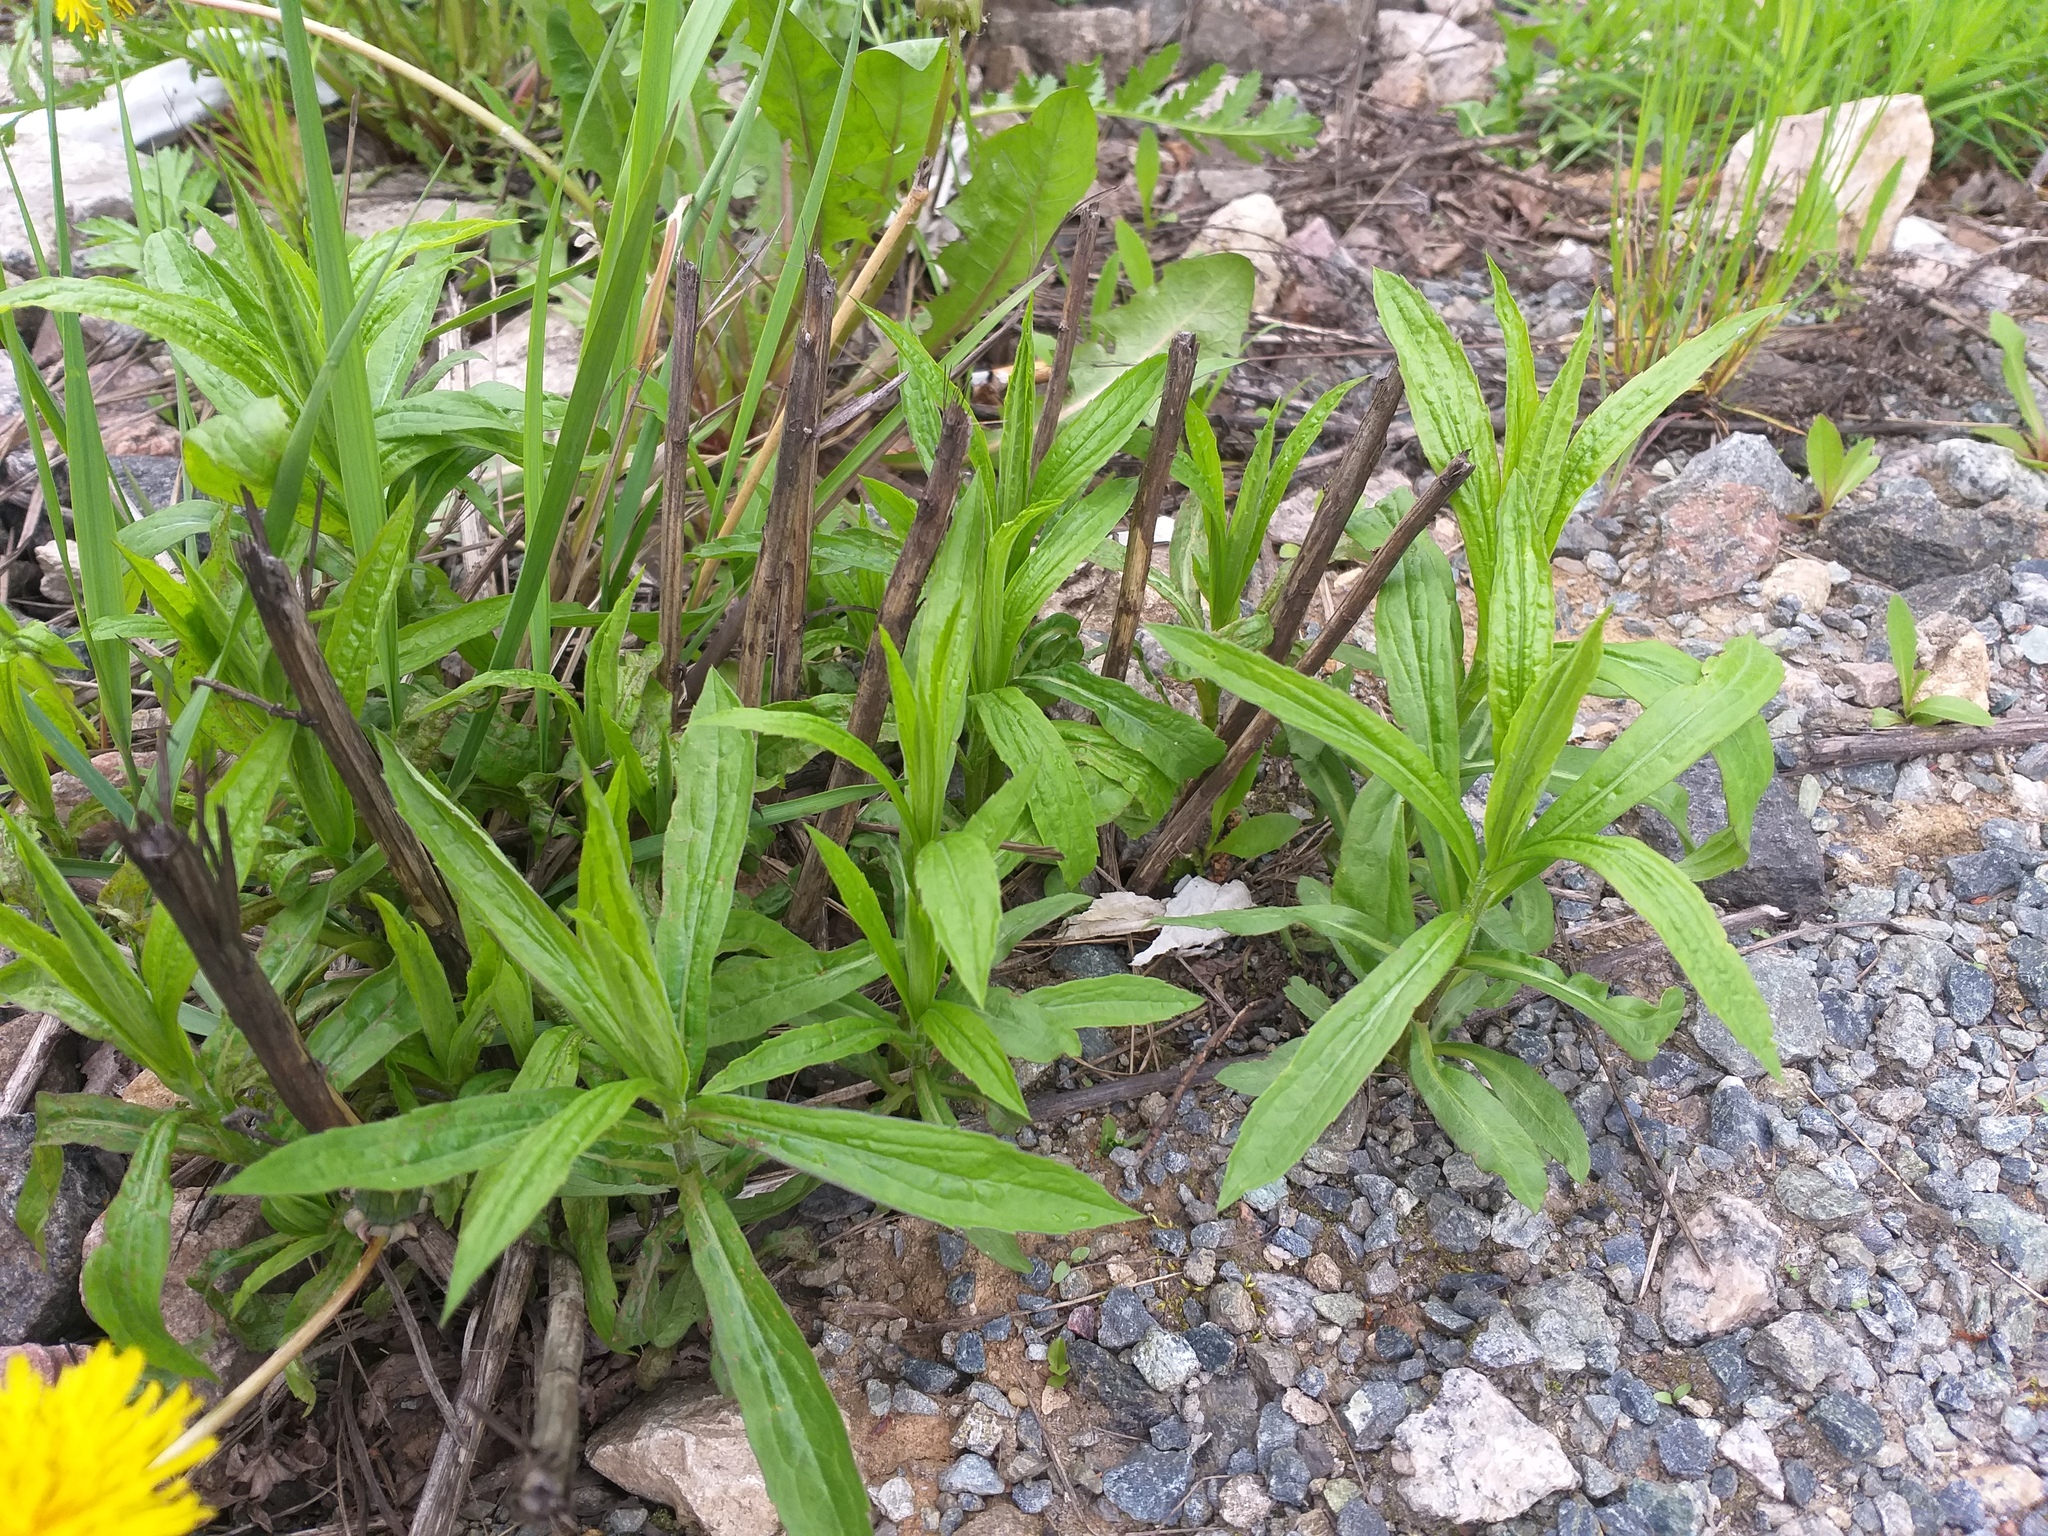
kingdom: Plantae
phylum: Tracheophyta
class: Magnoliopsida
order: Asterales
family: Asteraceae
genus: Solidago
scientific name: Solidago canadensis
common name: Canada goldenrod
